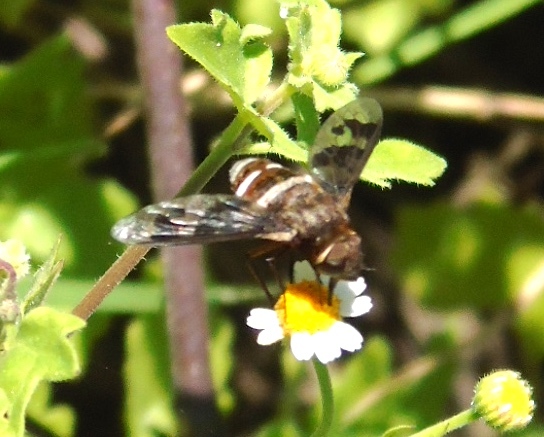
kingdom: Animalia
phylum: Arthropoda
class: Insecta
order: Diptera
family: Bombyliidae
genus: Exoprosopa
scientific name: Exoprosopa iota
